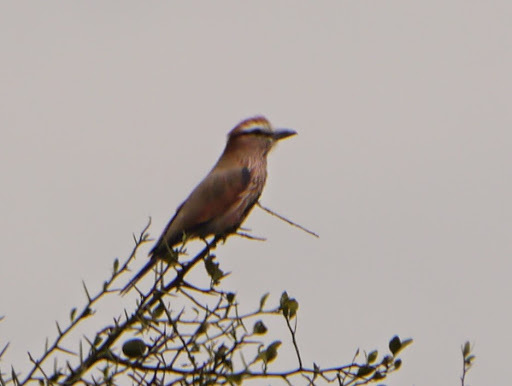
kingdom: Animalia
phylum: Chordata
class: Aves
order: Coraciiformes
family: Coraciidae
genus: Coracias
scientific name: Coracias naevius
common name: Purple roller
